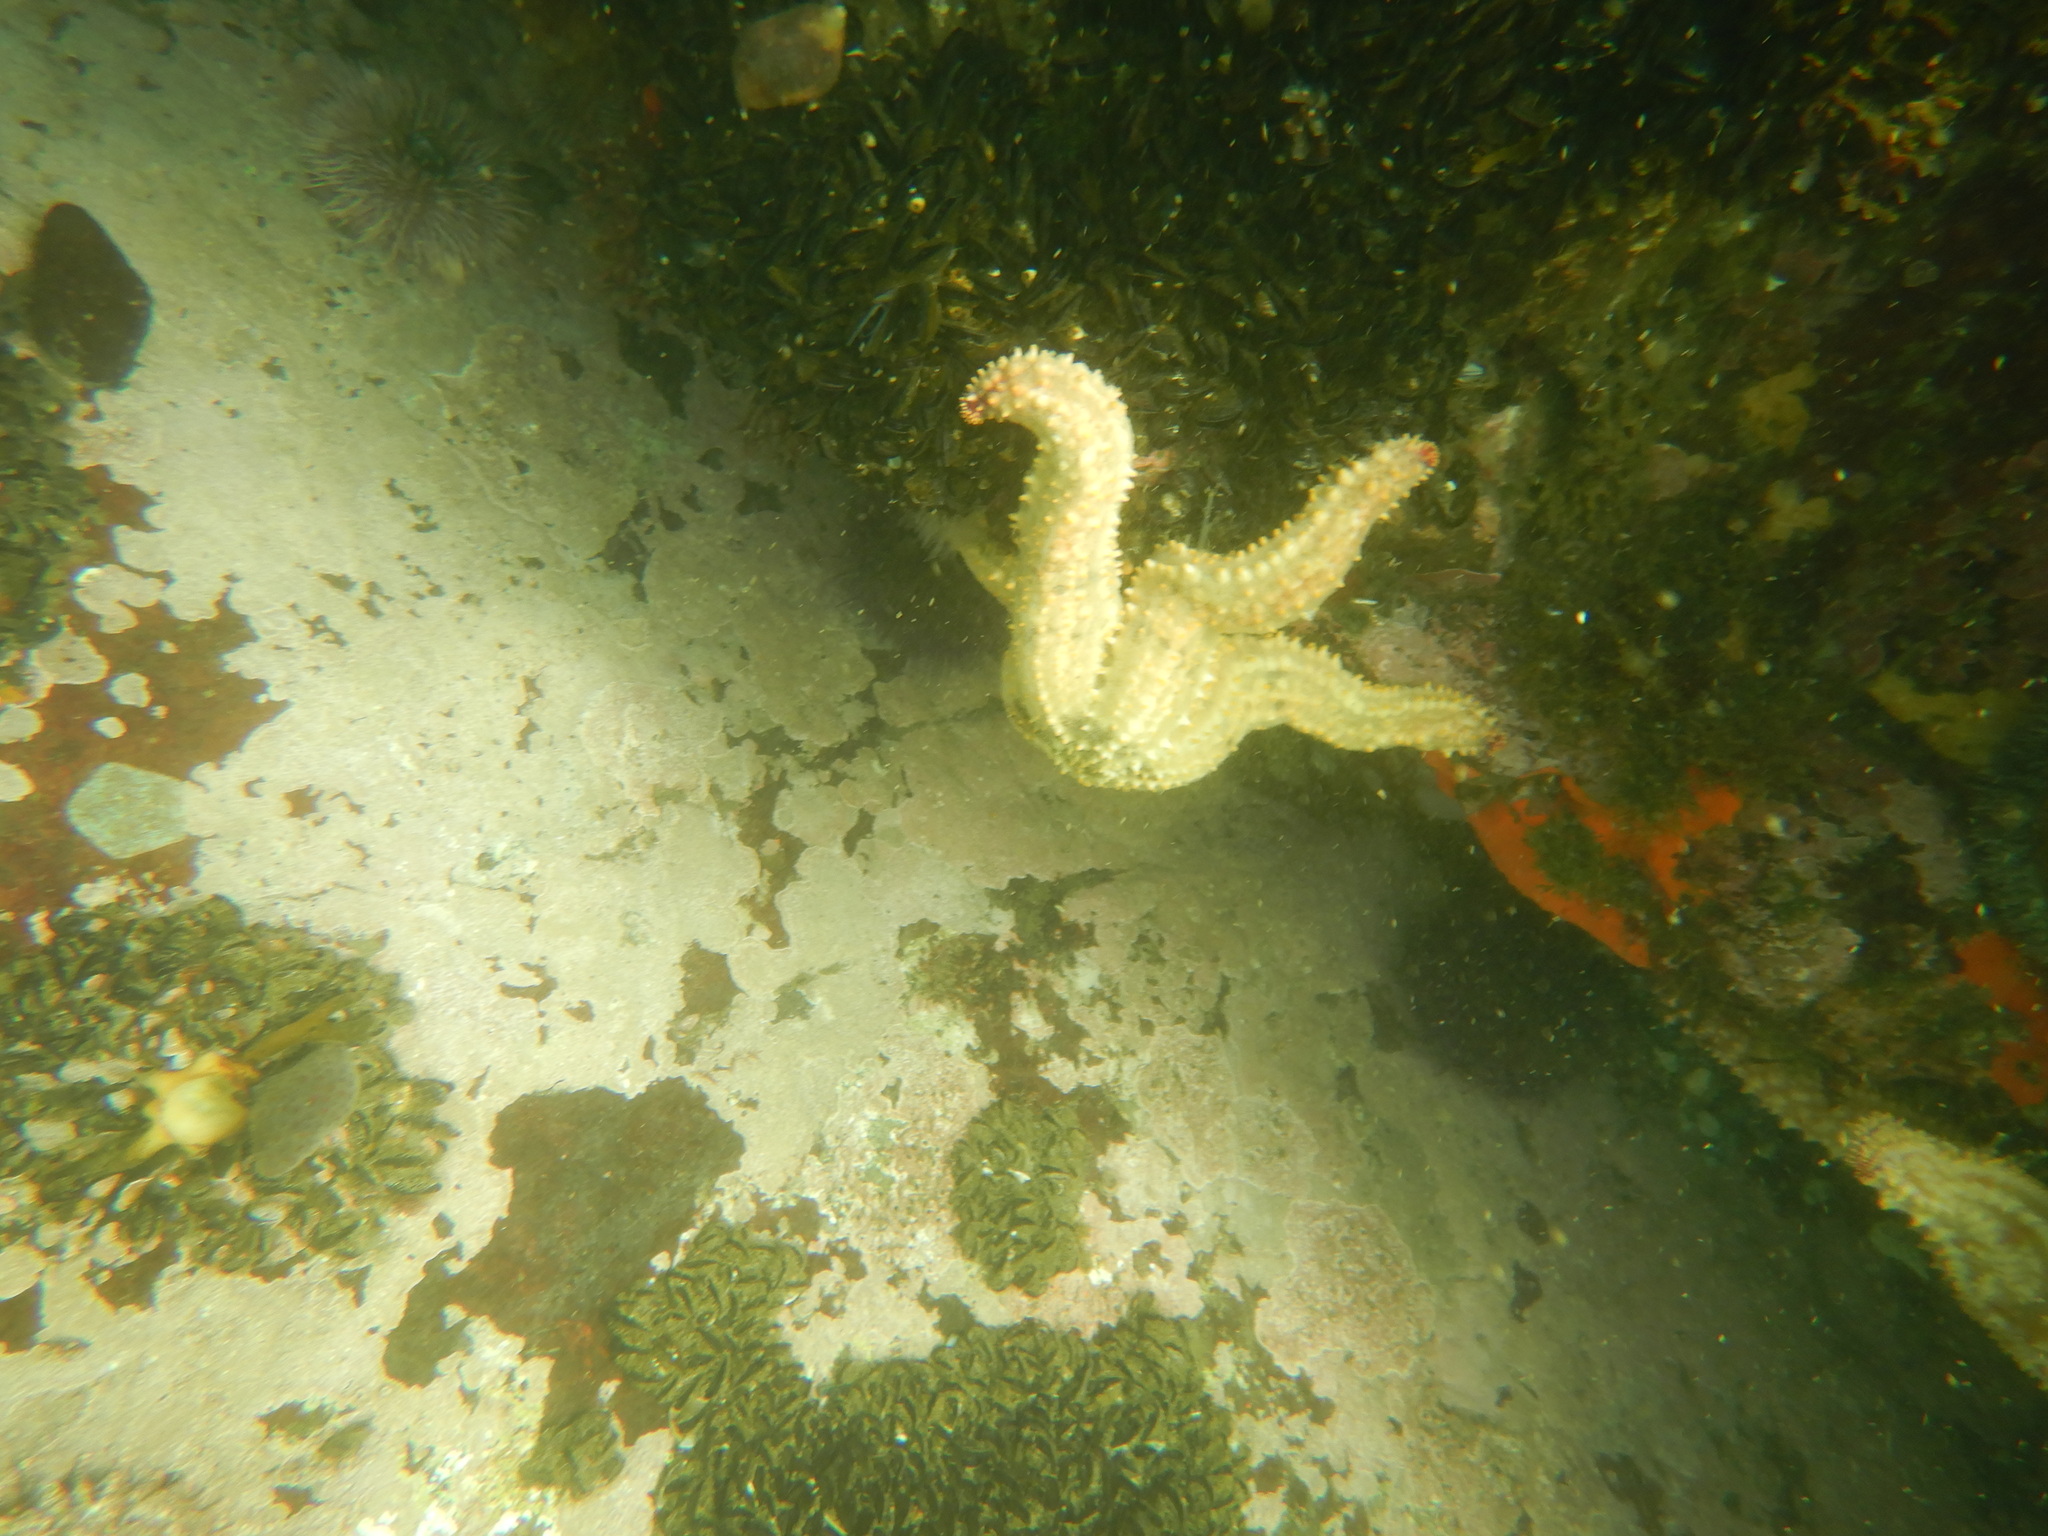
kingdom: Animalia
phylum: Echinodermata
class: Asteroidea
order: Forcipulatida
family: Asteriidae
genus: Marthasterias
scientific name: Marthasterias africana
